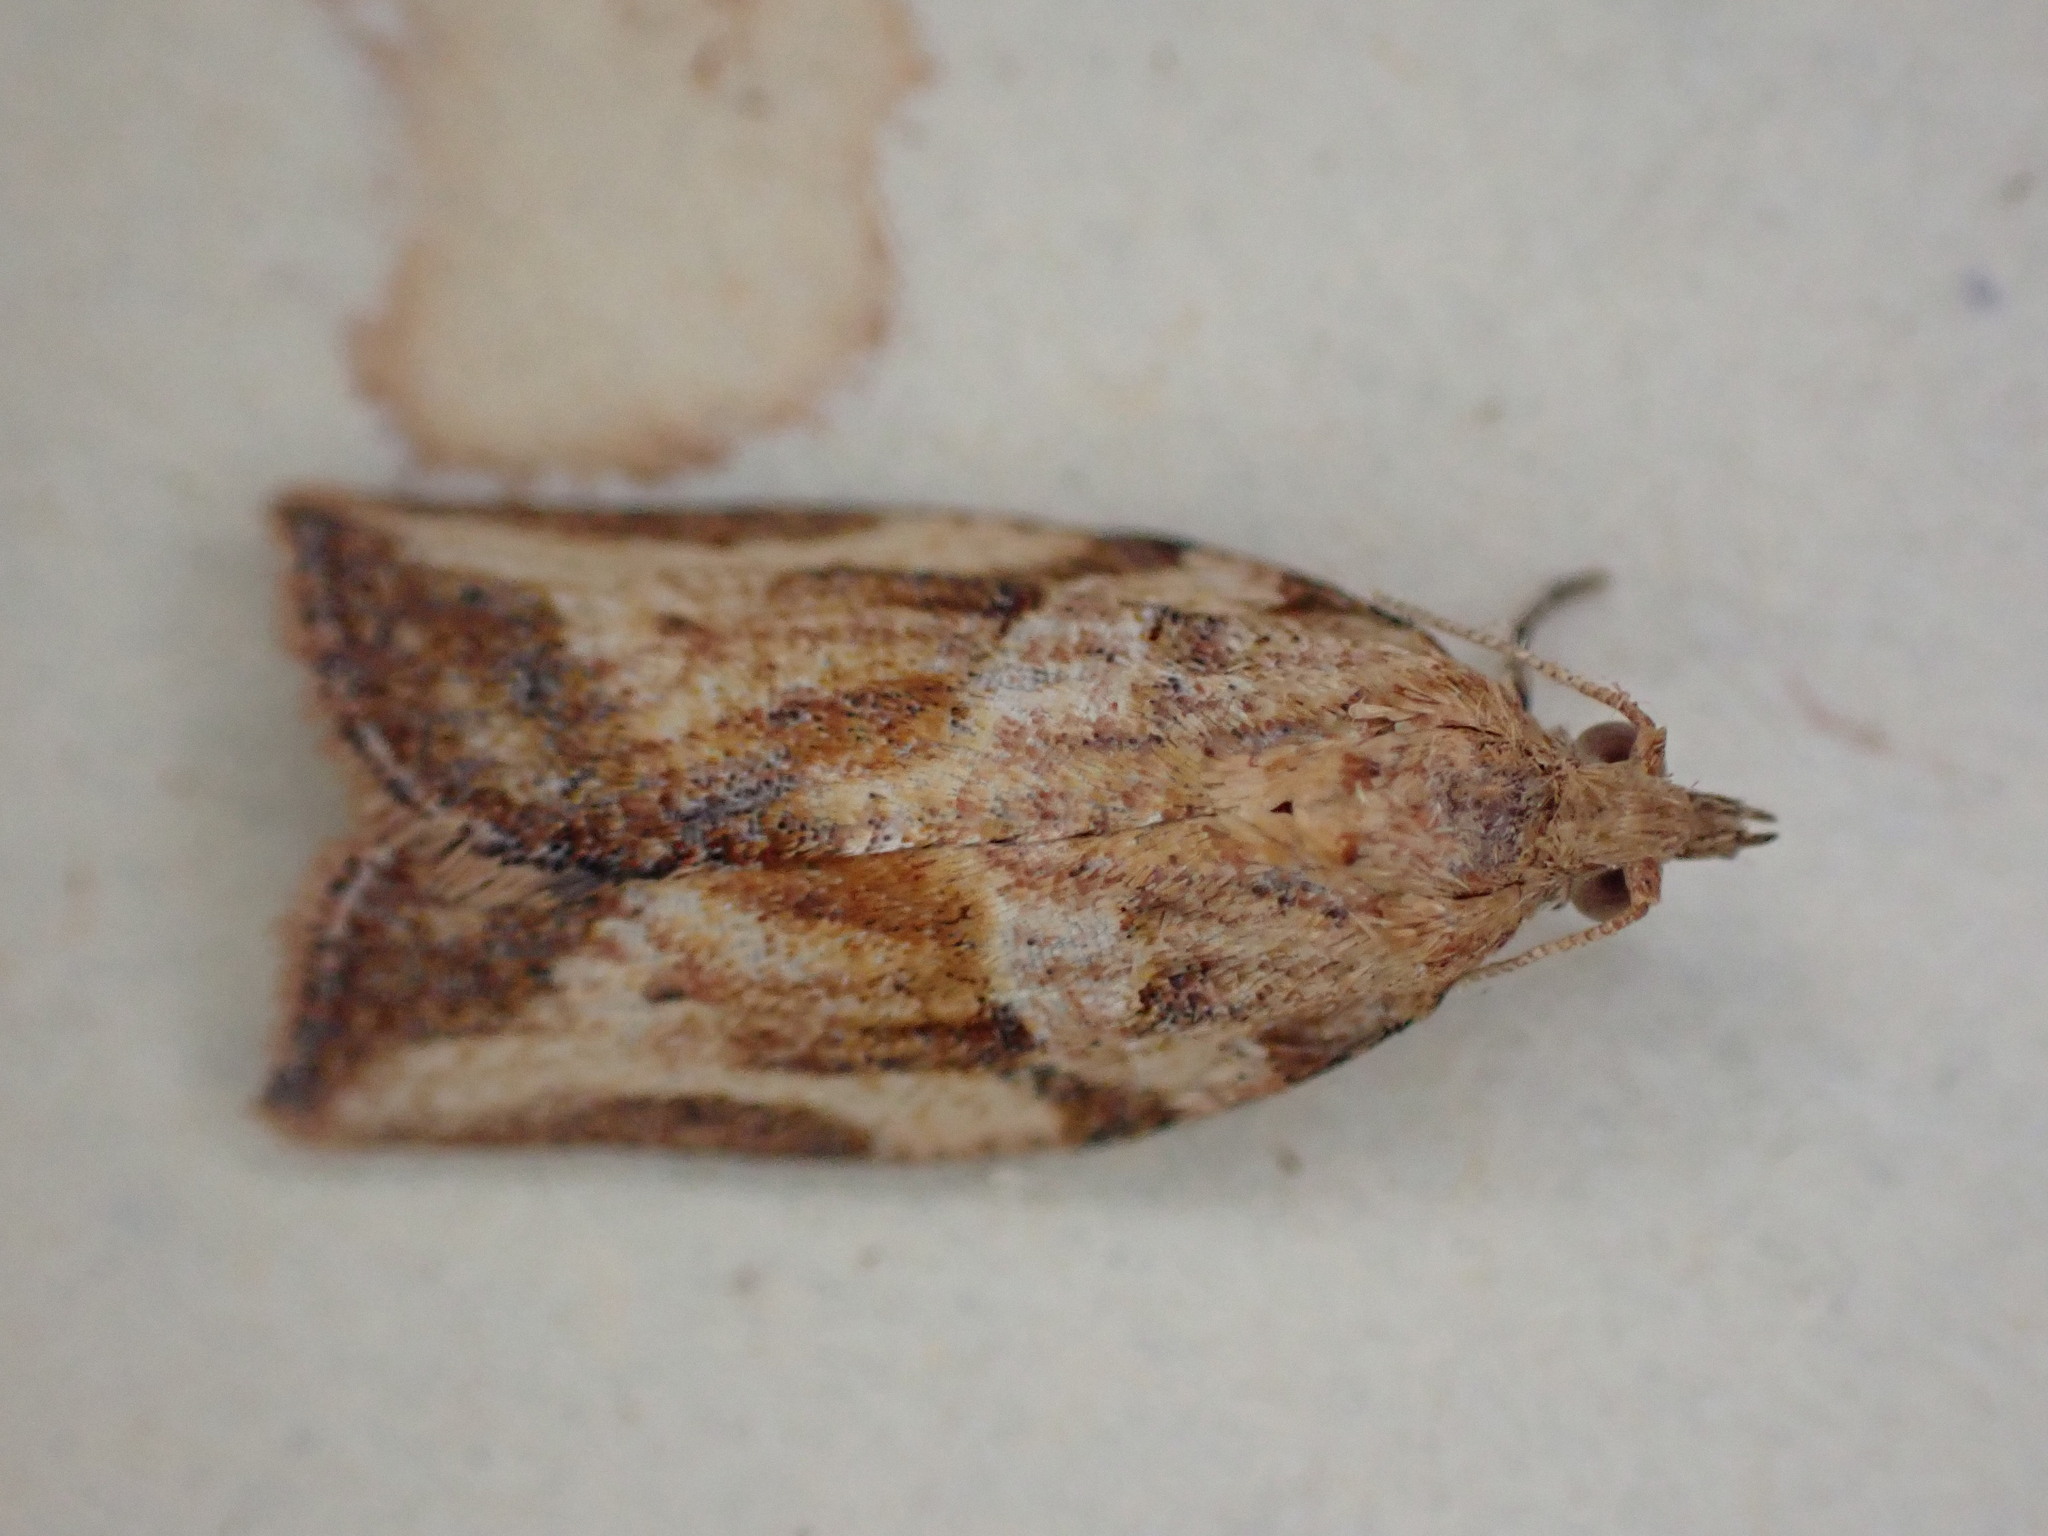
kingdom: Animalia
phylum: Arthropoda
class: Insecta
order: Lepidoptera
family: Tortricidae
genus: Epiphyas
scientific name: Epiphyas postvittana
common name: Light brown apple moth
